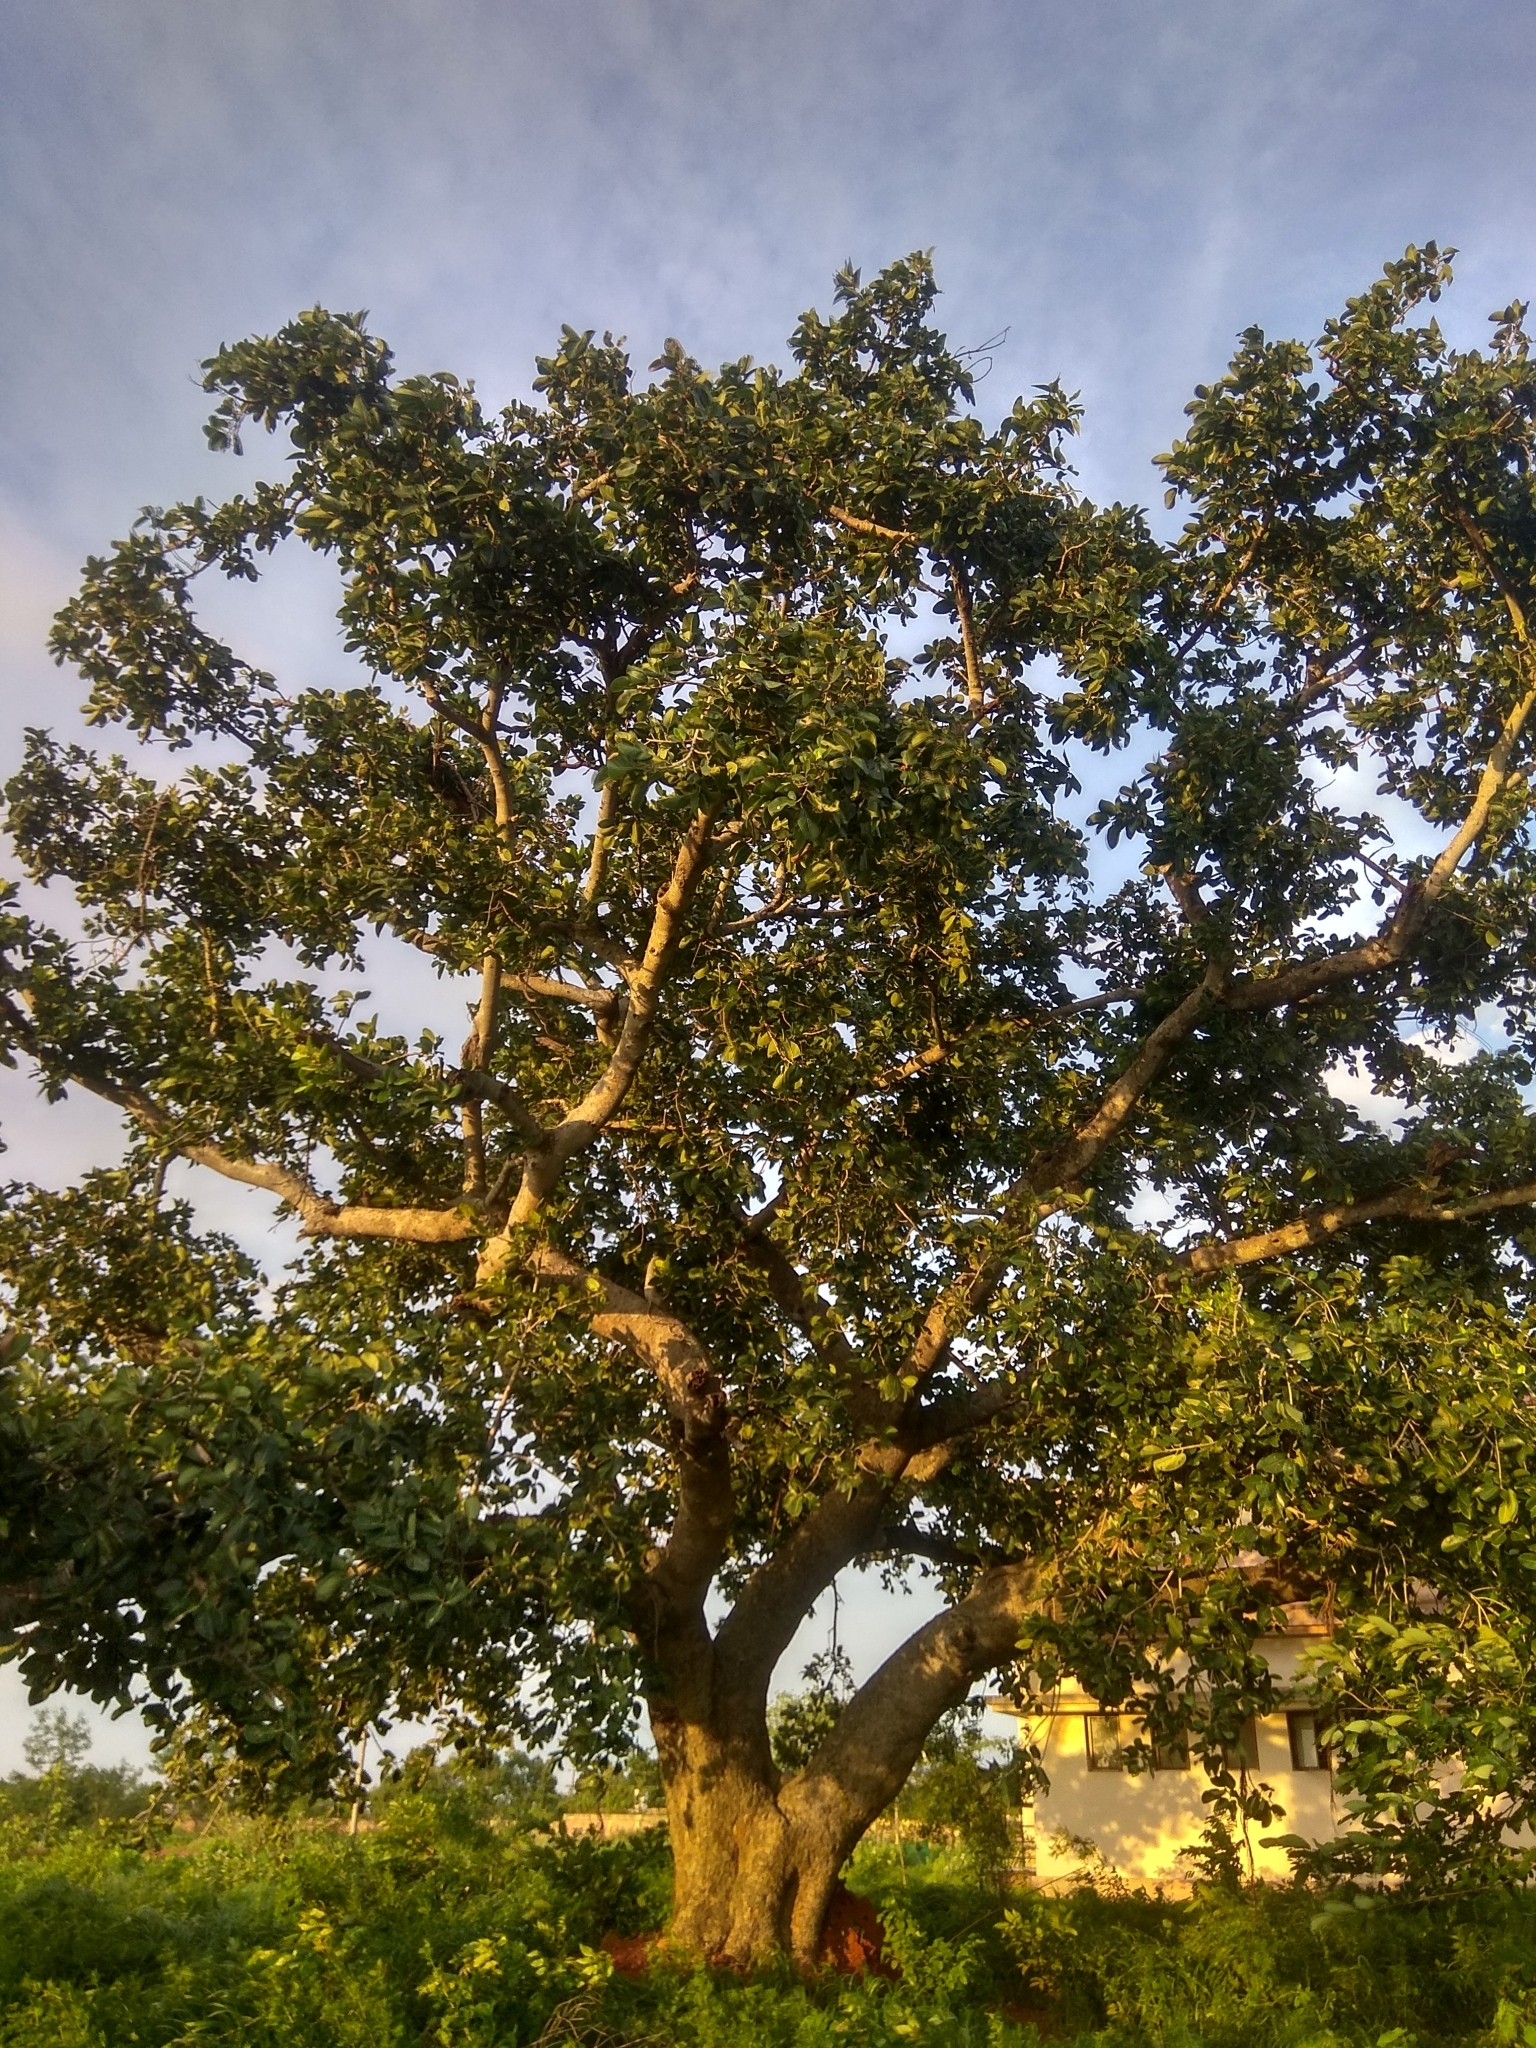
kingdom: Plantae
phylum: Tracheophyta
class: Magnoliopsida
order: Rosales
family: Moraceae
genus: Ficus
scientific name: Ficus benghalensis
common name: Indian banyan
